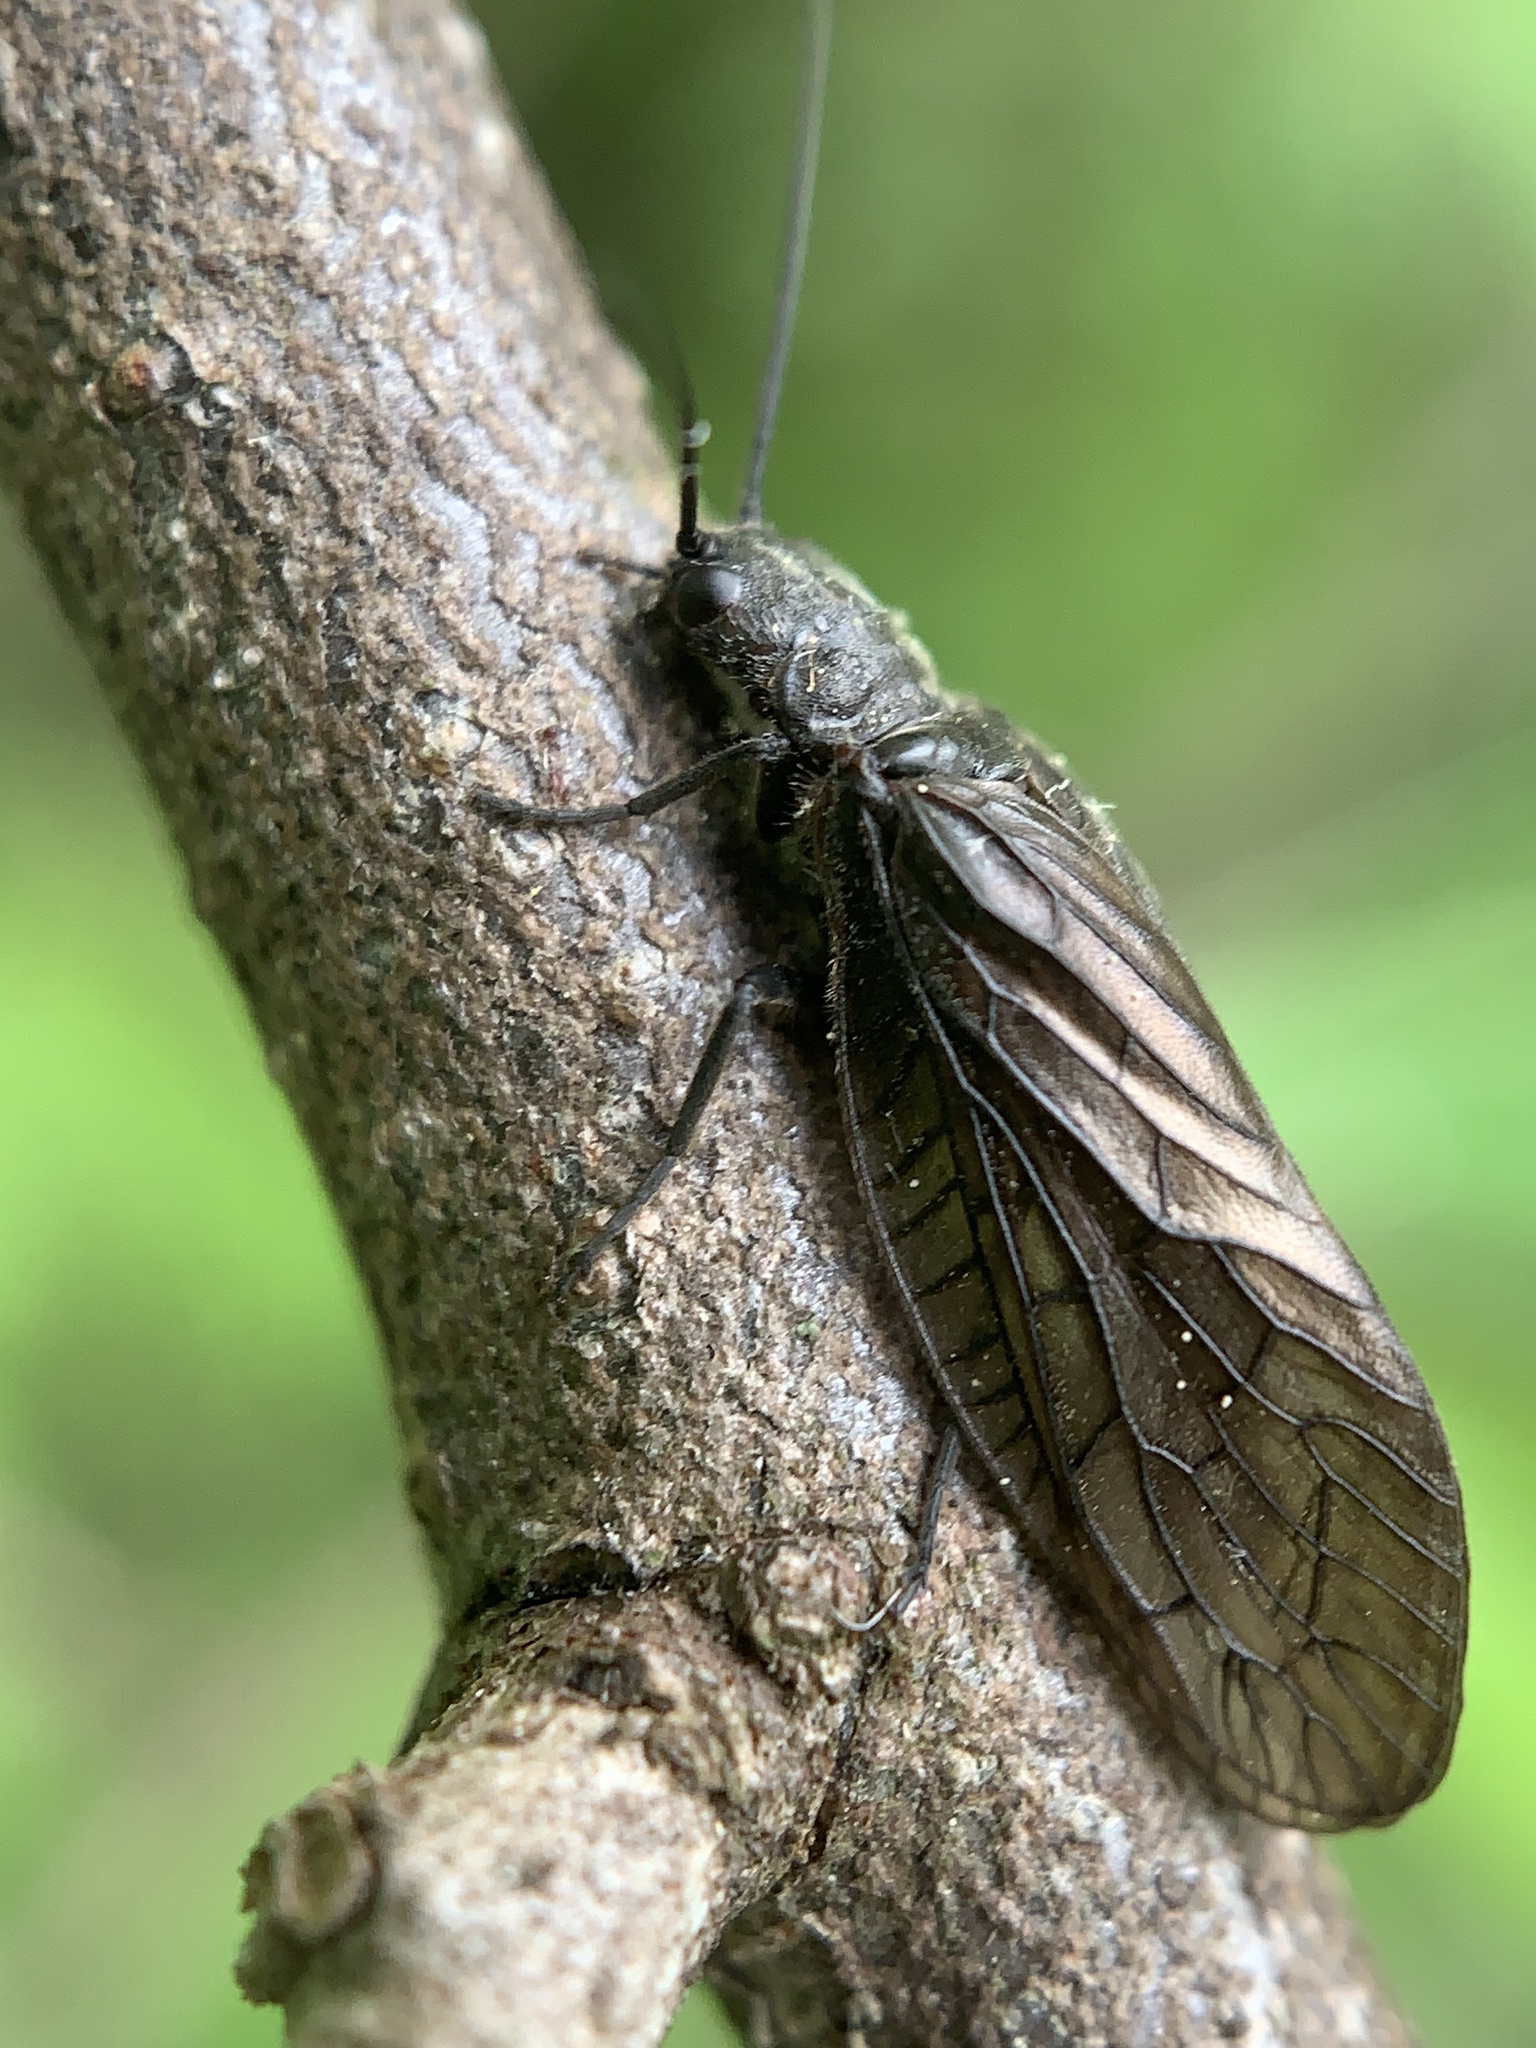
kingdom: Animalia
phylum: Arthropoda
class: Insecta
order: Megaloptera
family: Sialidae
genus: Sialis
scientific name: Sialis
